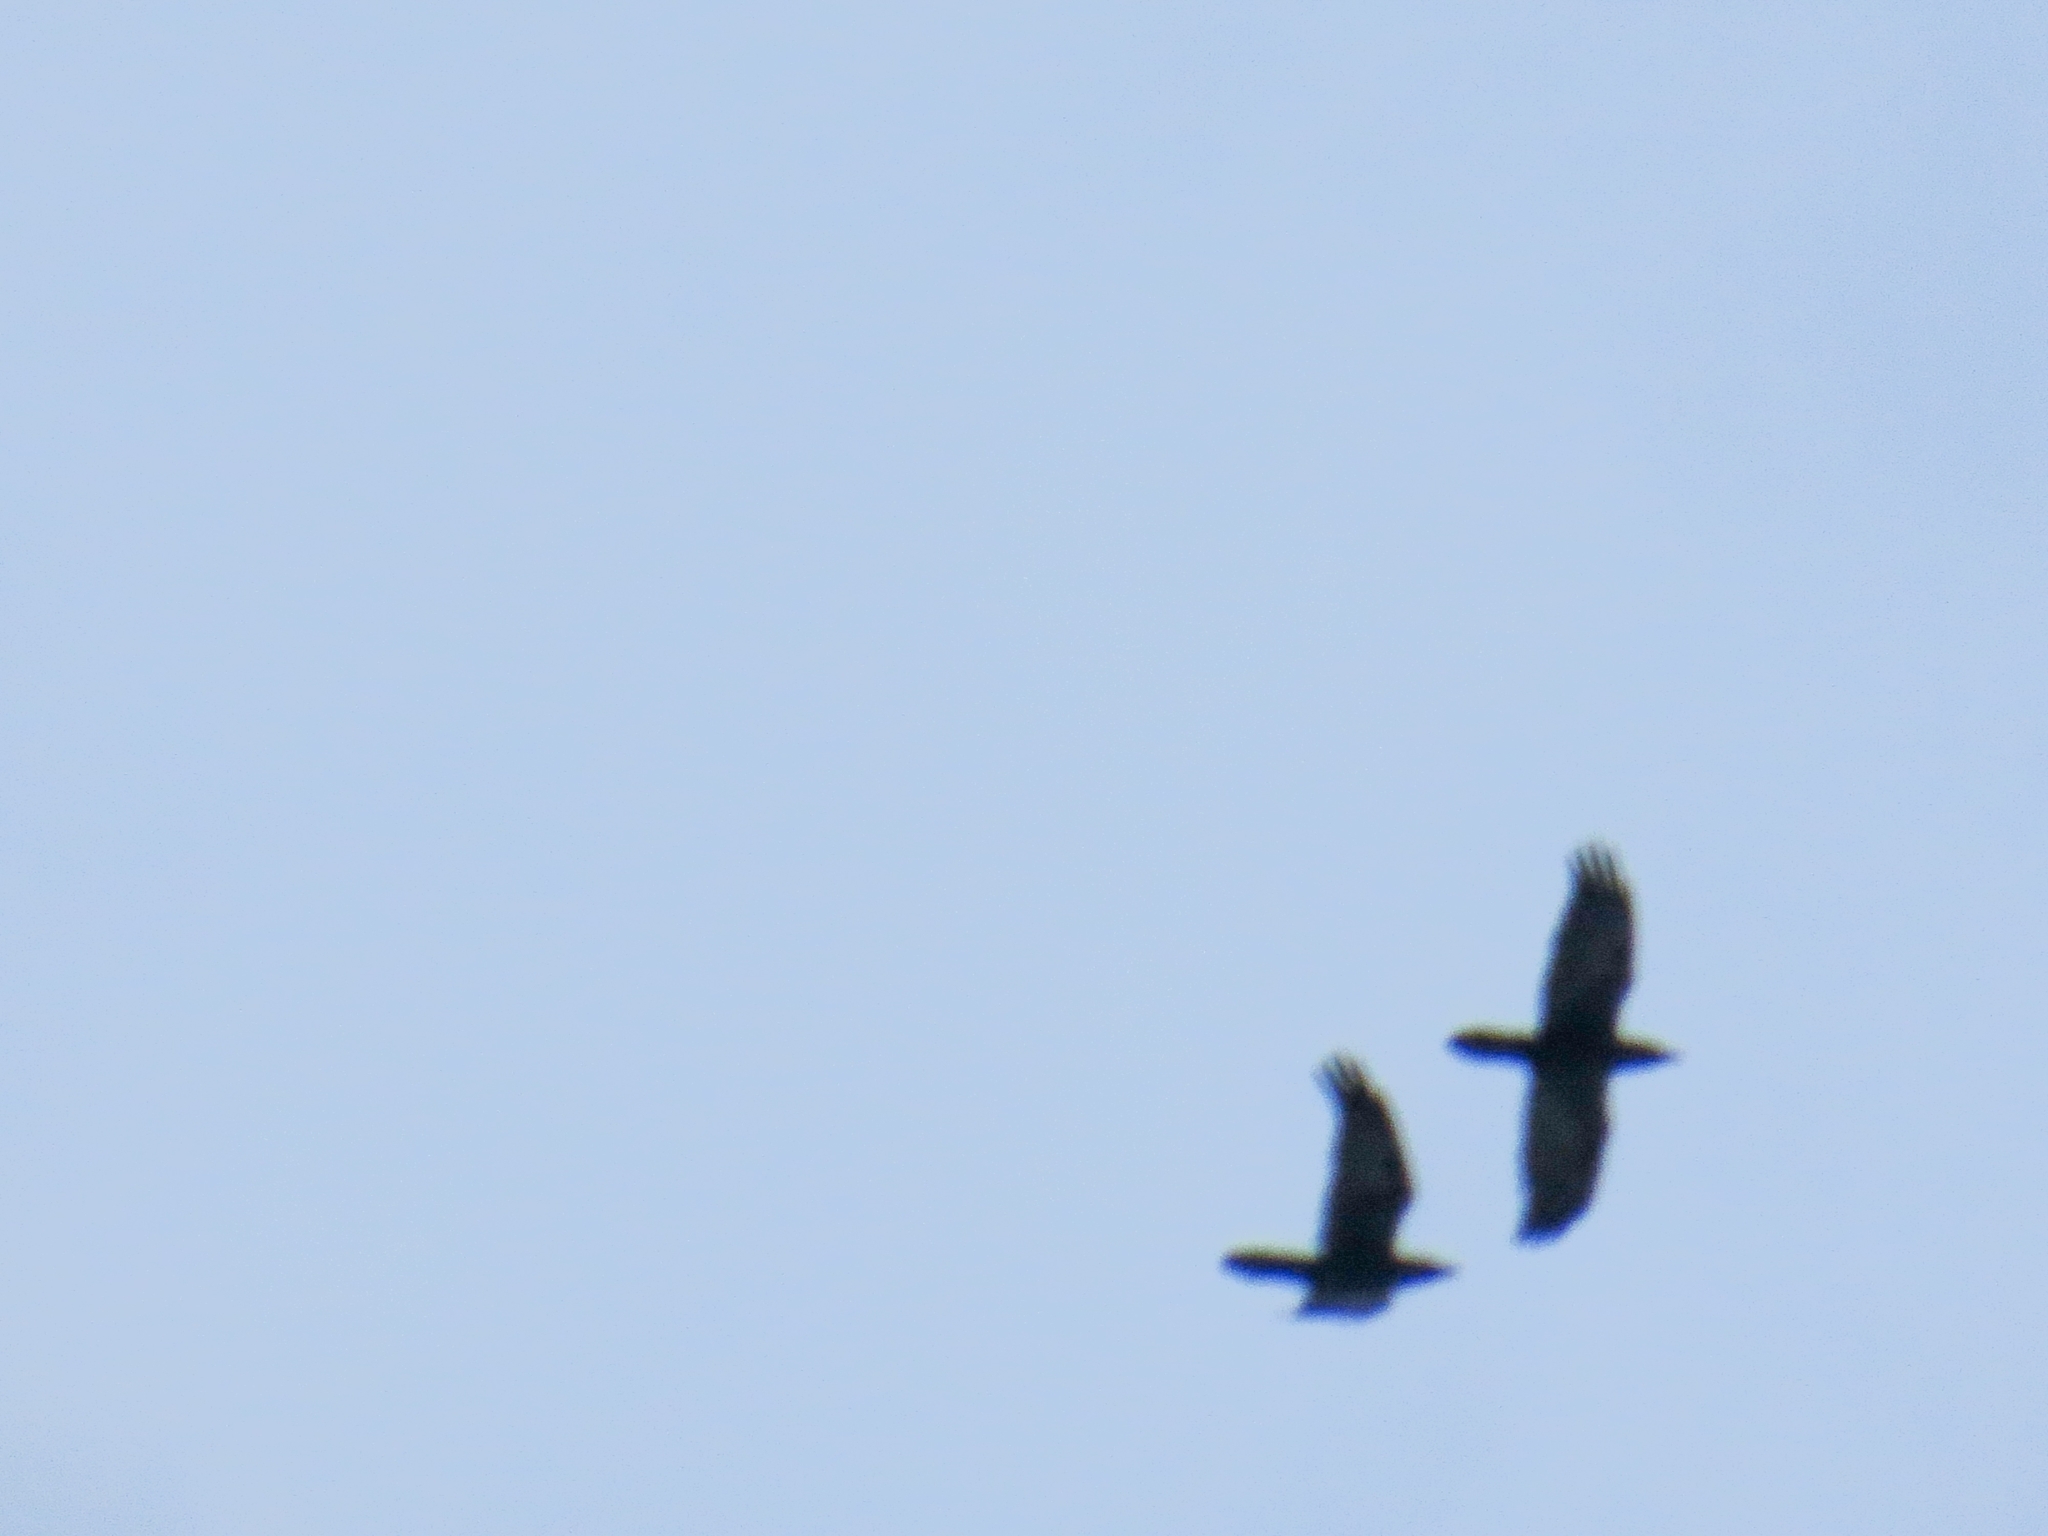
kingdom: Animalia
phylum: Chordata
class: Aves
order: Passeriformes
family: Corvidae
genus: Corvus
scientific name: Corvus corax
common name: Common raven
